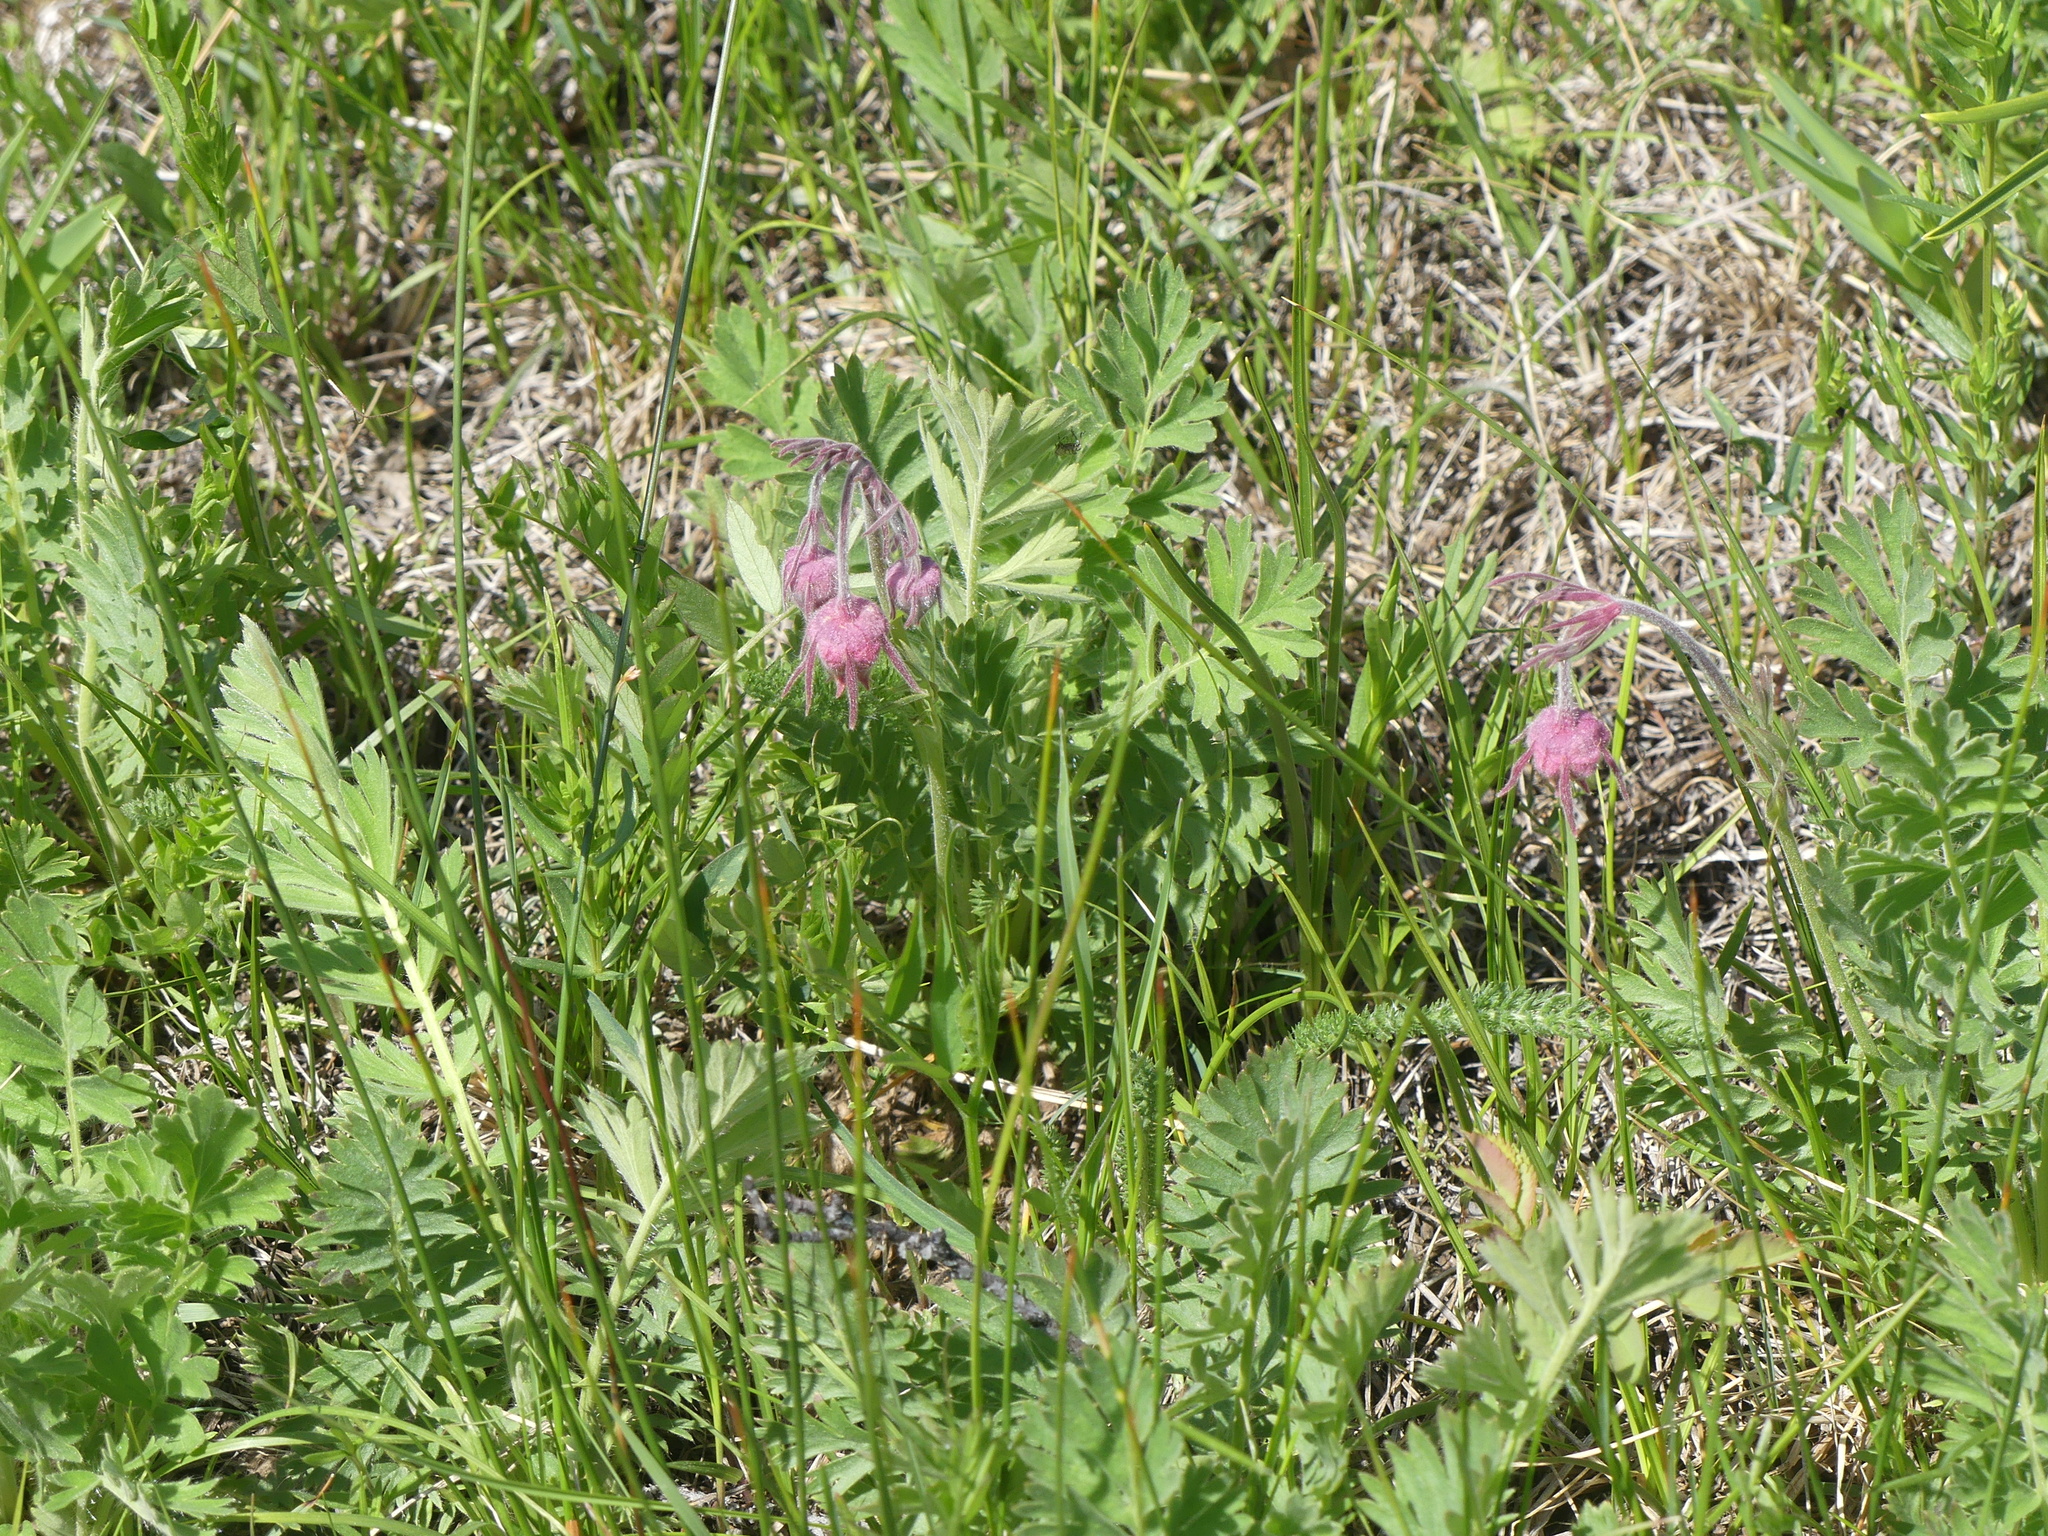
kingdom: Plantae
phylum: Tracheophyta
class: Magnoliopsida
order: Rosales
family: Rosaceae
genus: Geum
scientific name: Geum triflorum
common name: Old man's whiskers
